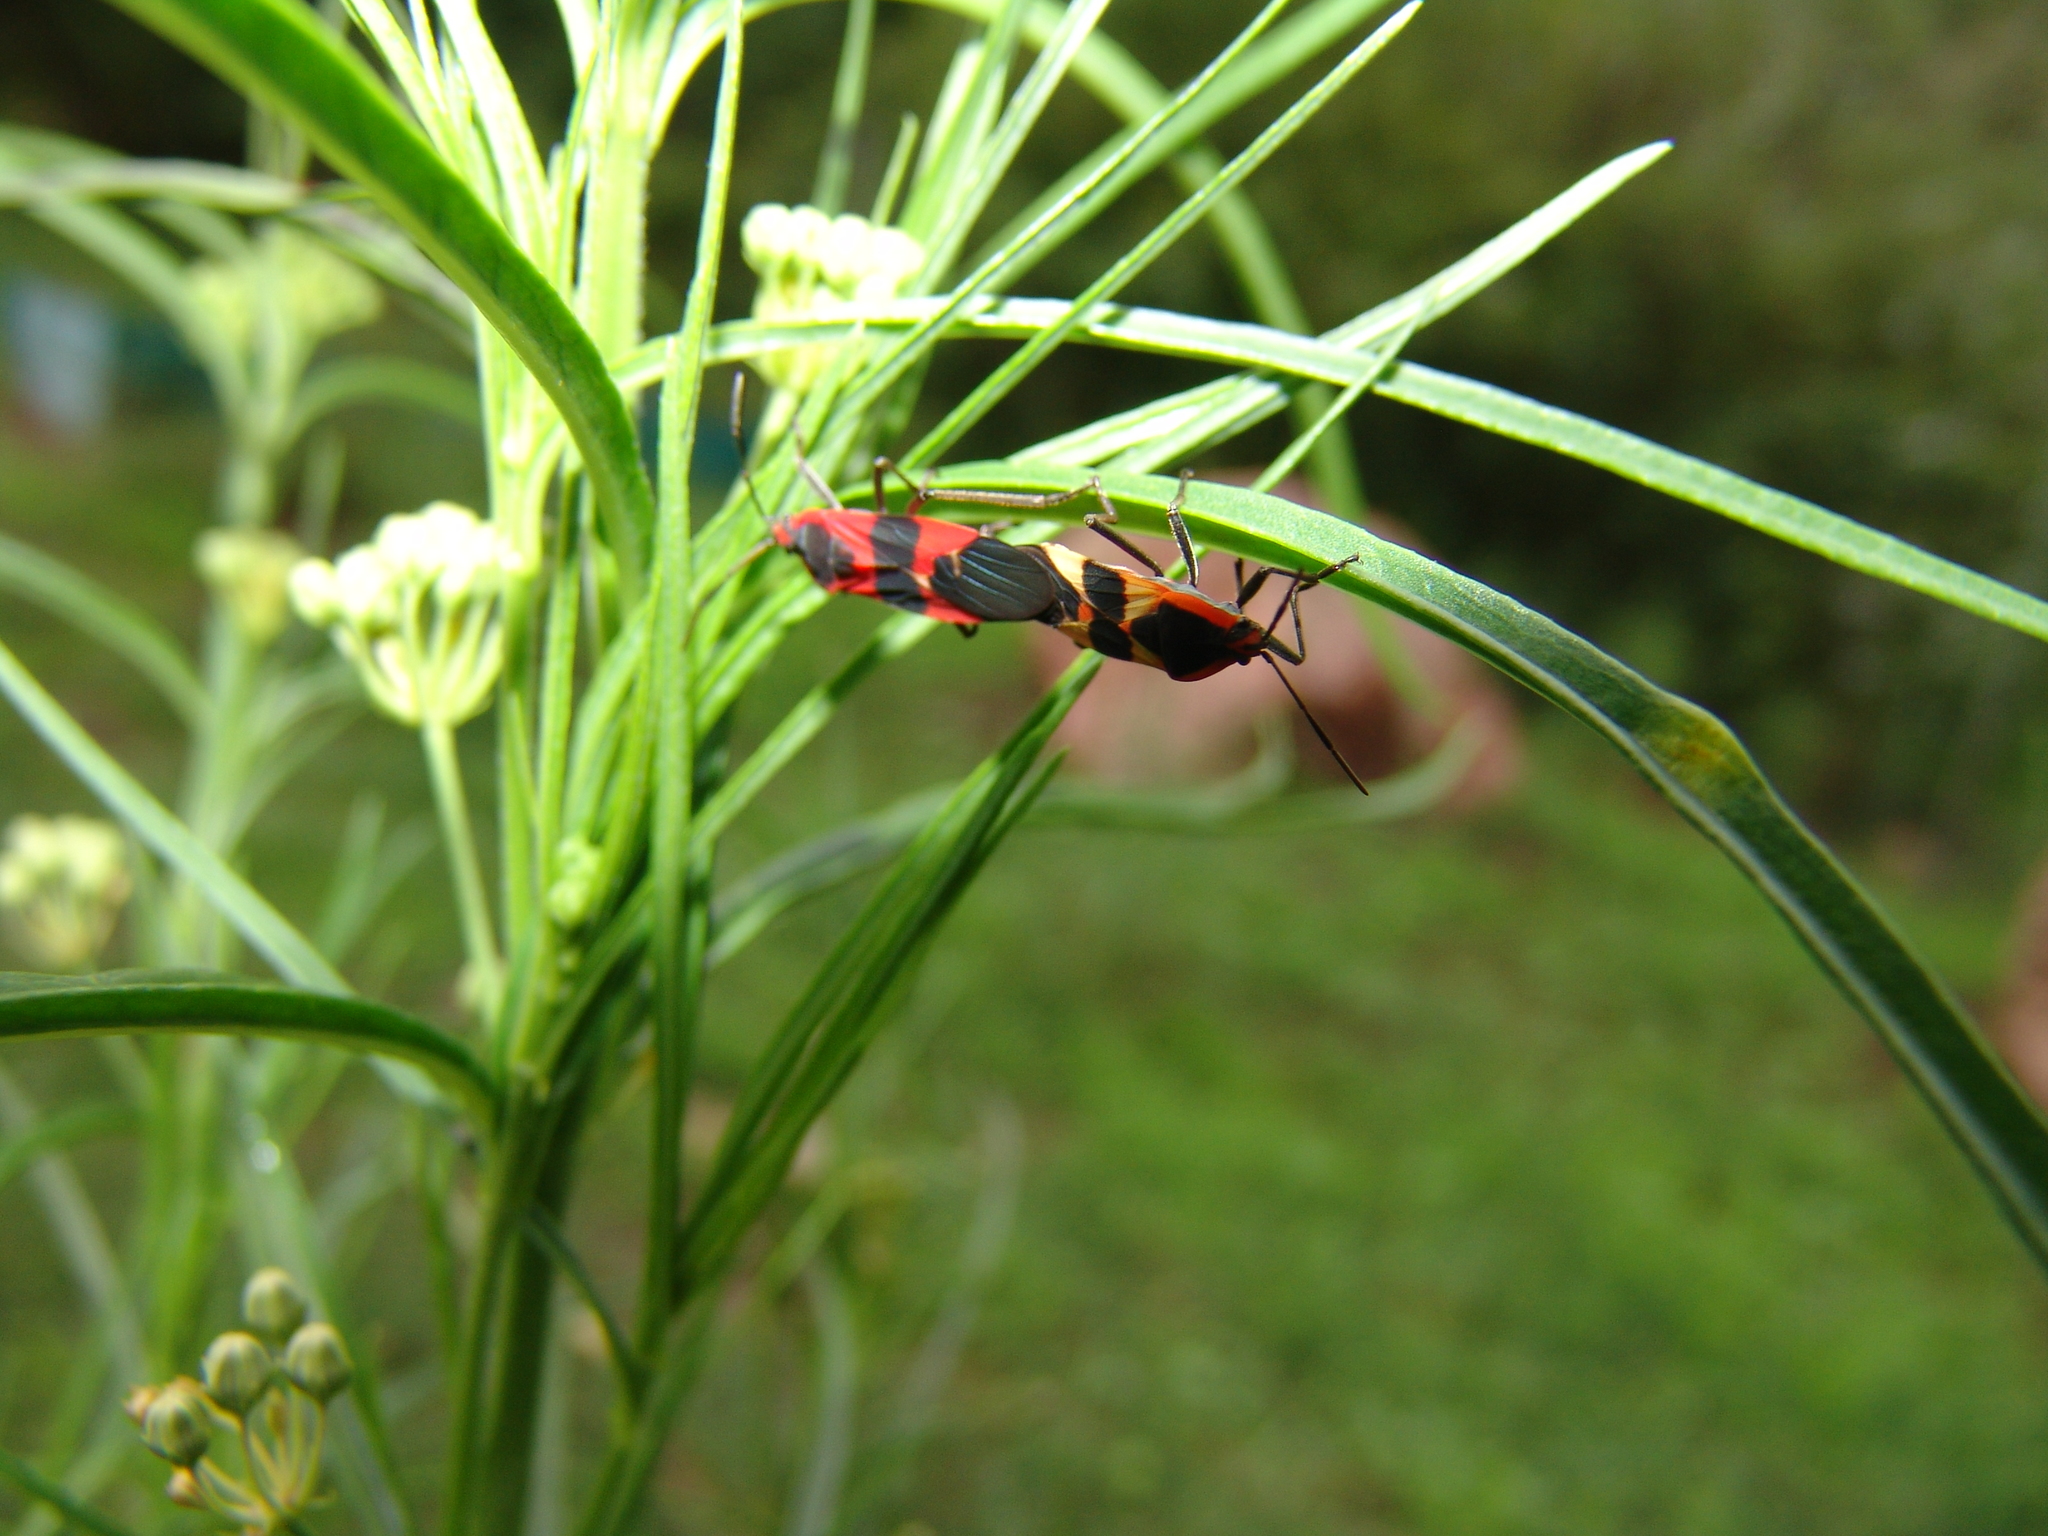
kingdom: Animalia
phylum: Arthropoda
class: Insecta
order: Hemiptera
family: Lygaeidae
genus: Oncopeltus
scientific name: Oncopeltus fasciatus
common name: Large milkweed bug
